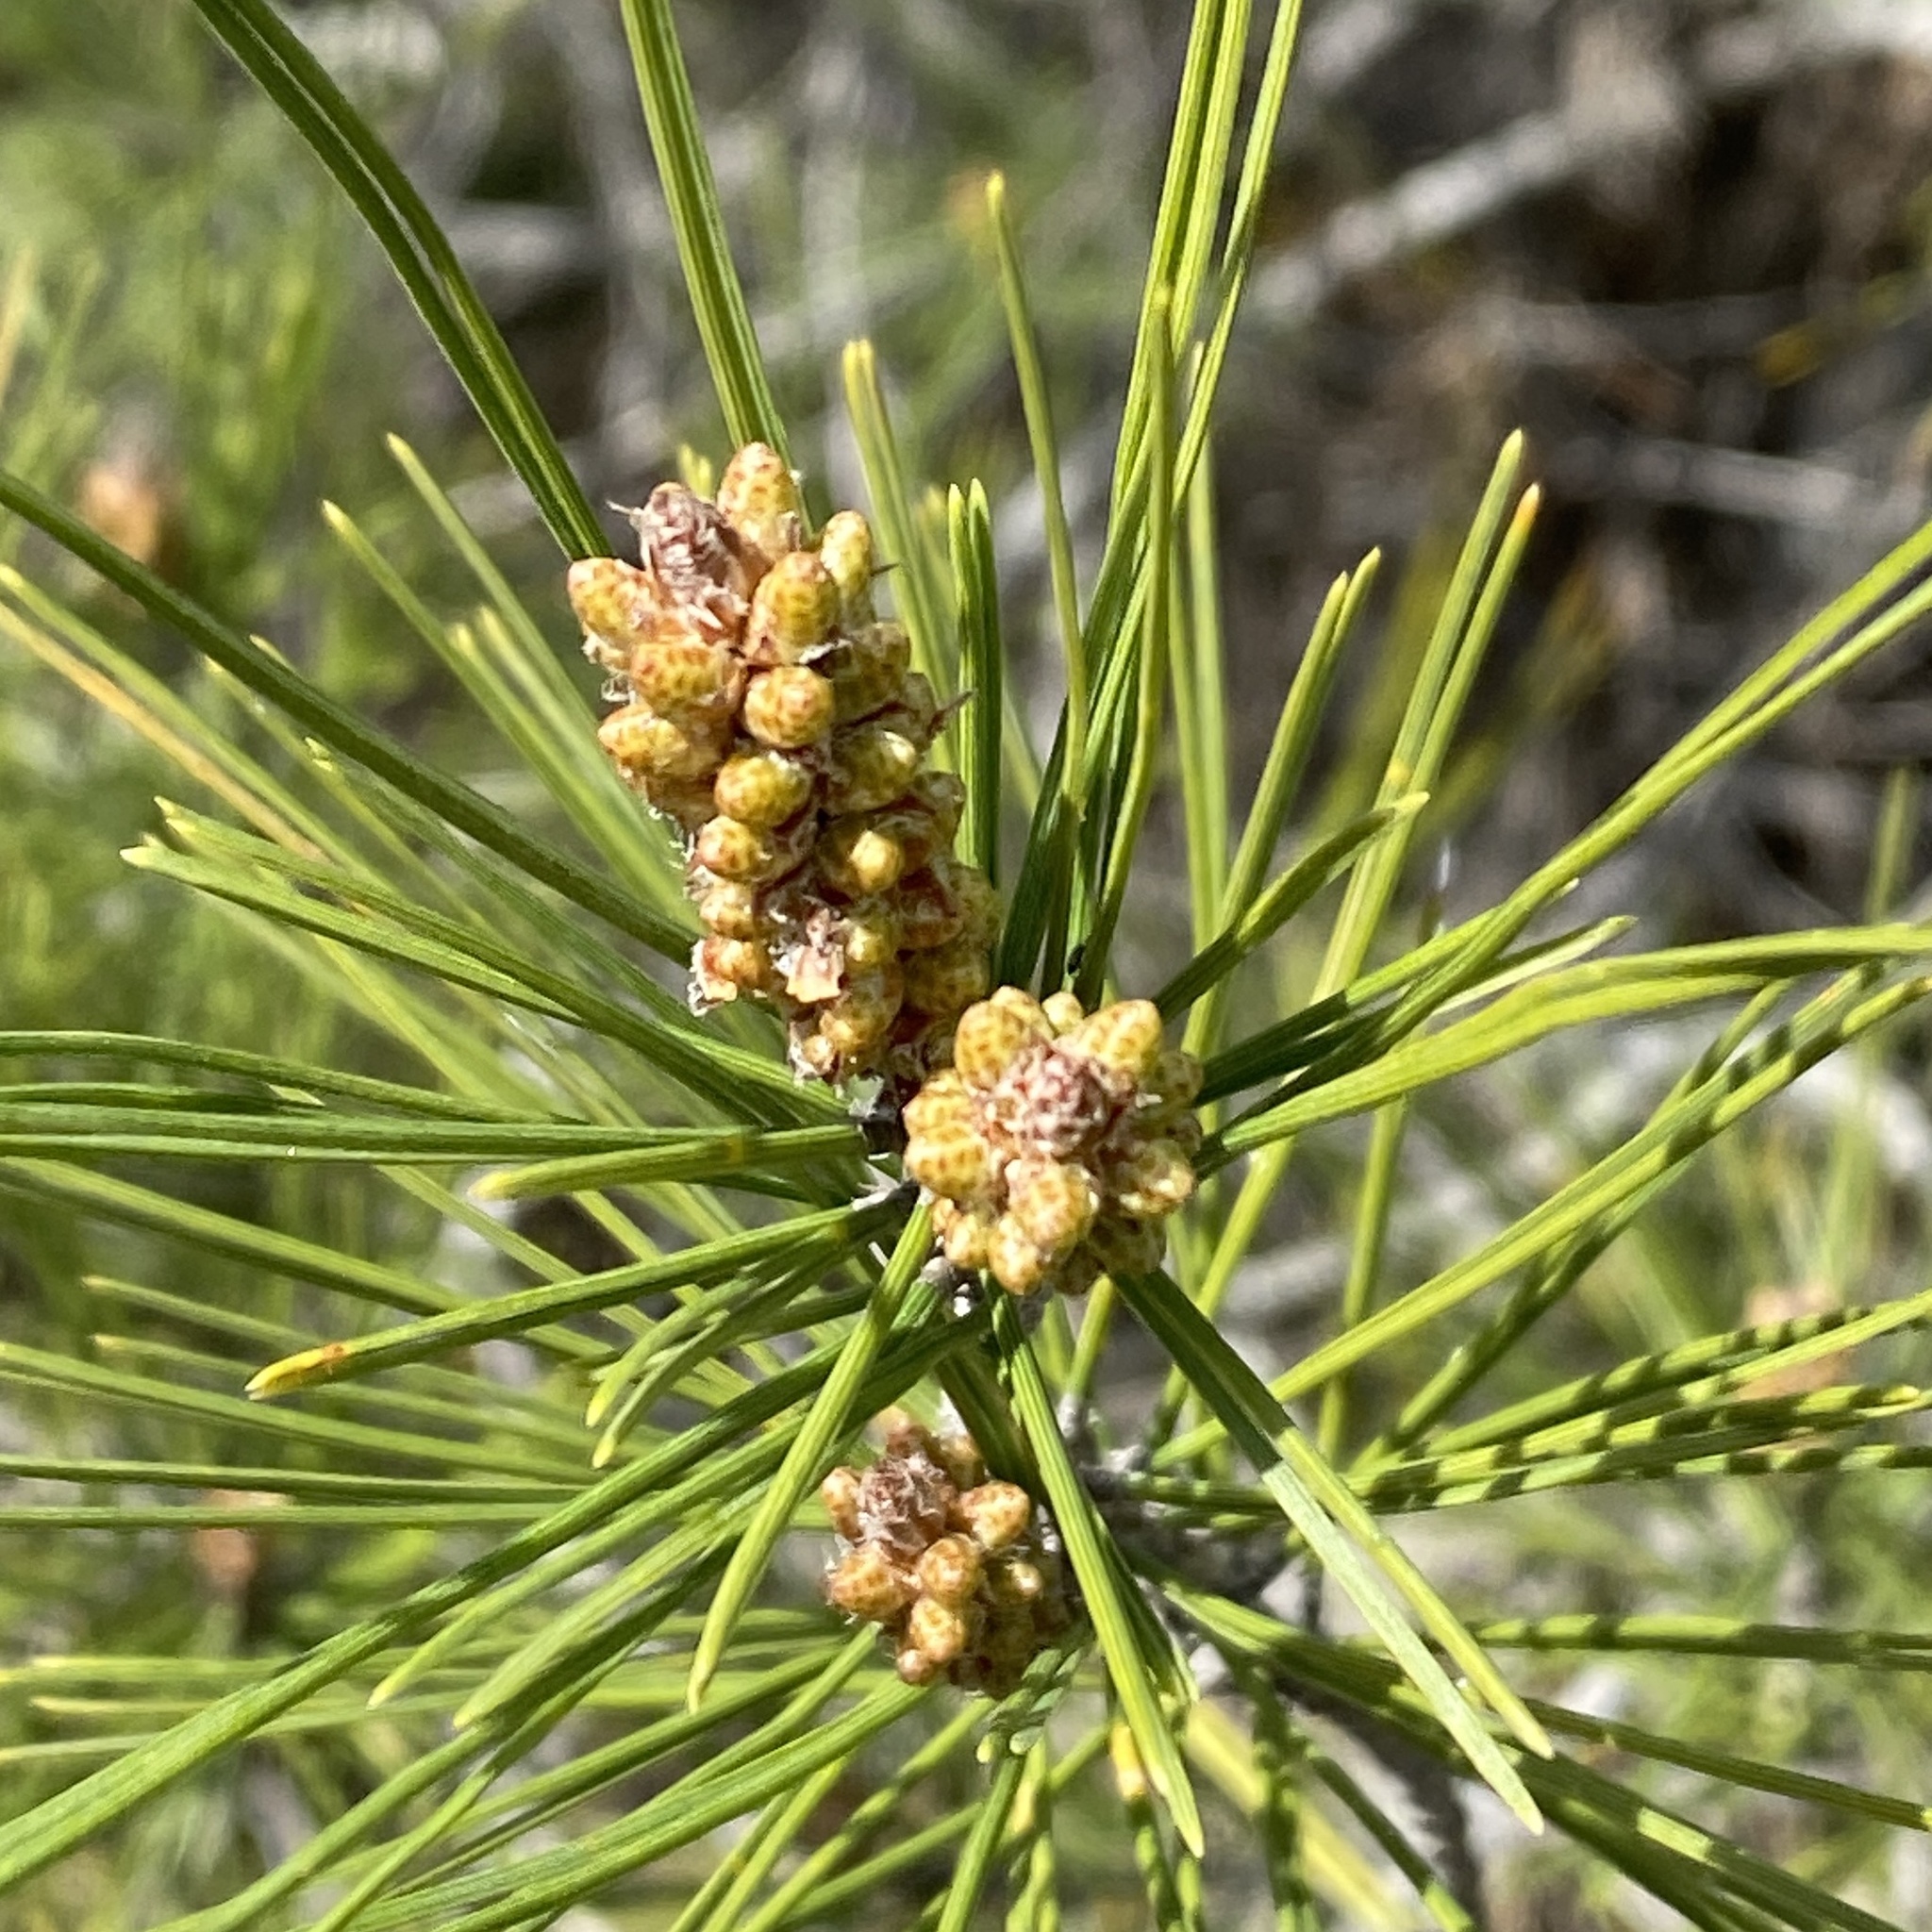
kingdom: Plantae
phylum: Tracheophyta
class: Pinopsida
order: Pinales
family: Pinaceae
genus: Pinus
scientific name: Pinus halepensis
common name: Aleppo pine
